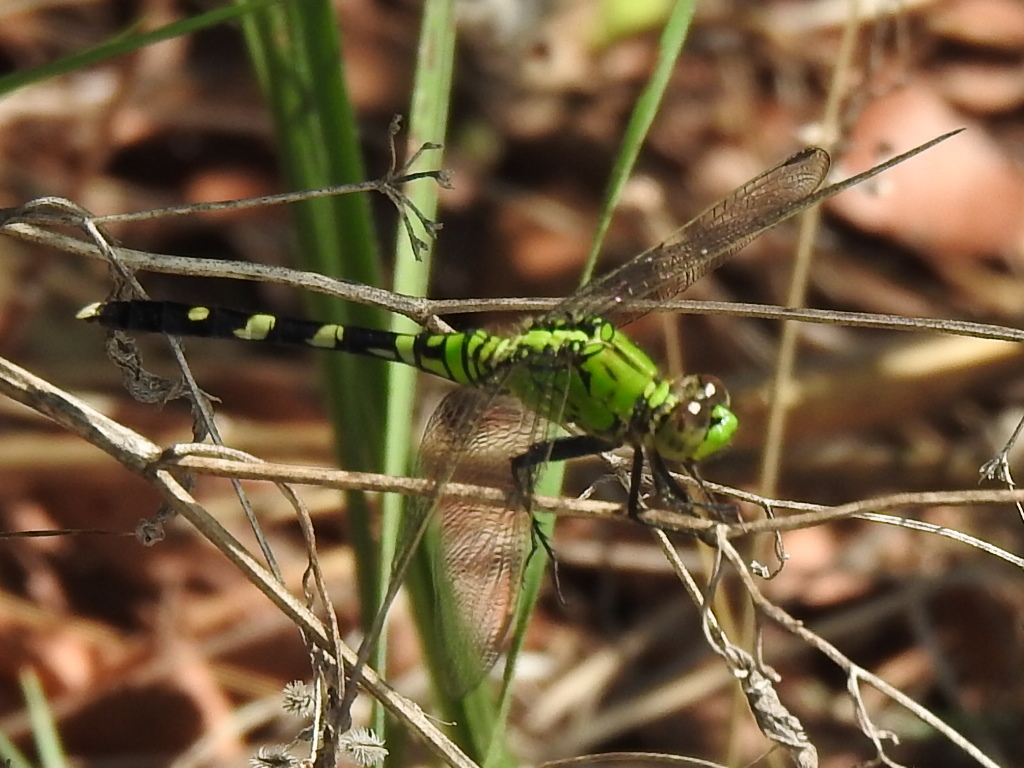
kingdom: Animalia
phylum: Arthropoda
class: Insecta
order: Odonata
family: Libellulidae
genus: Erythemis
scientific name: Erythemis simplicicollis
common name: Eastern pondhawk
